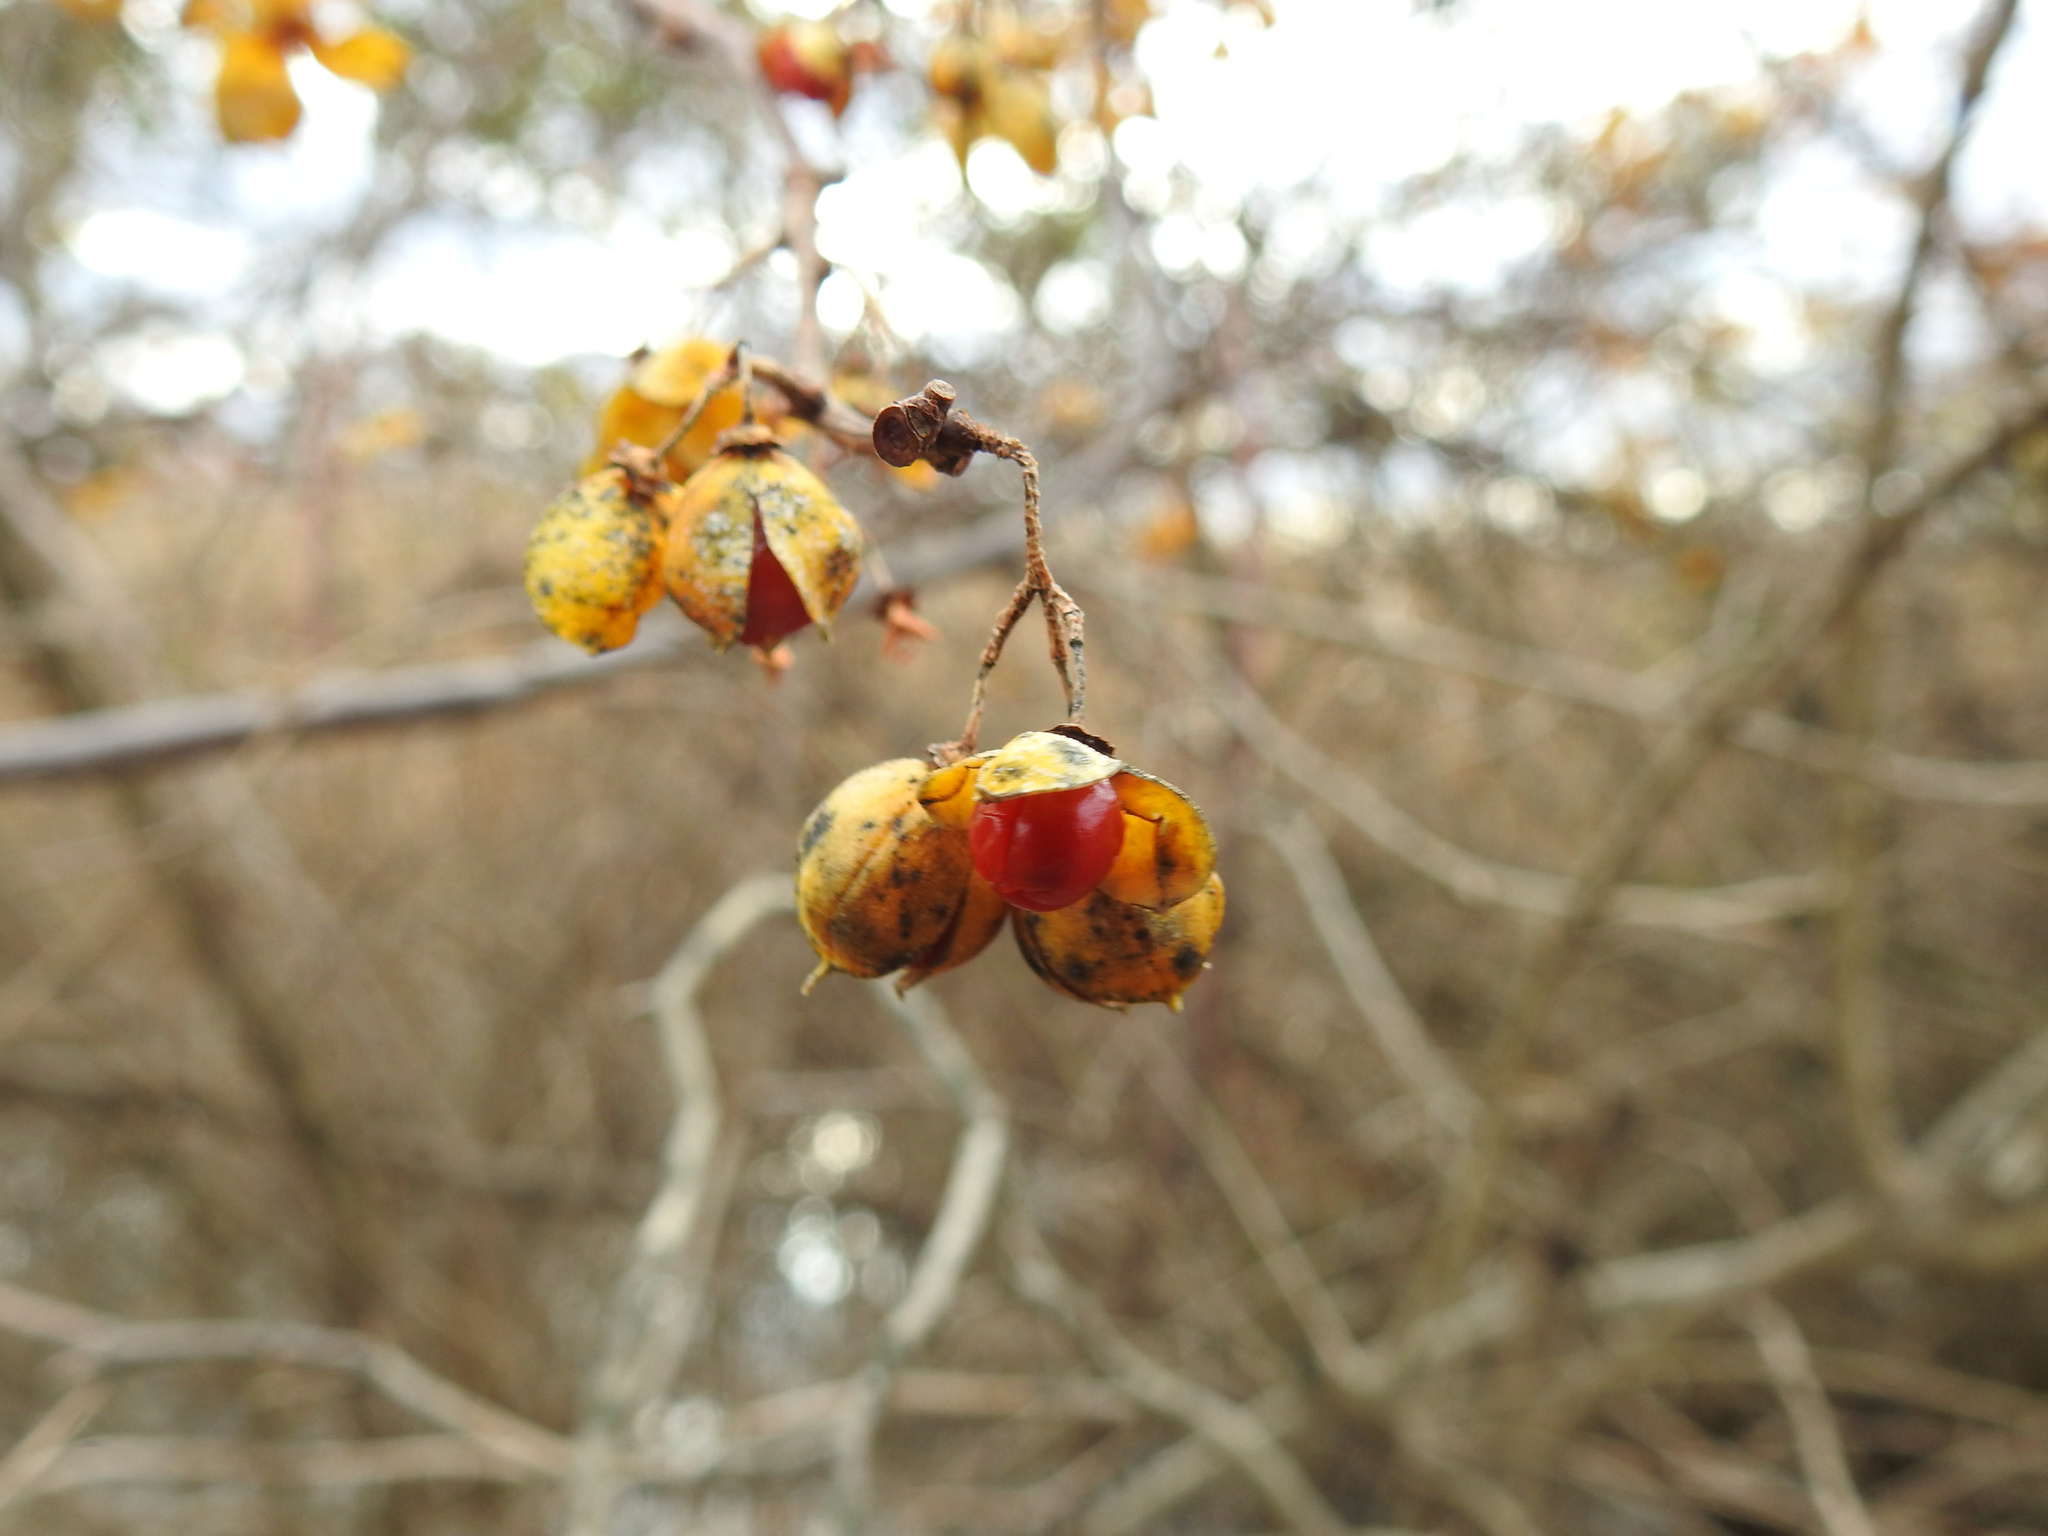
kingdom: Plantae
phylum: Tracheophyta
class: Magnoliopsida
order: Celastrales
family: Celastraceae
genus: Celastrus
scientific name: Celastrus orbiculatus
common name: Oriental bittersweet
